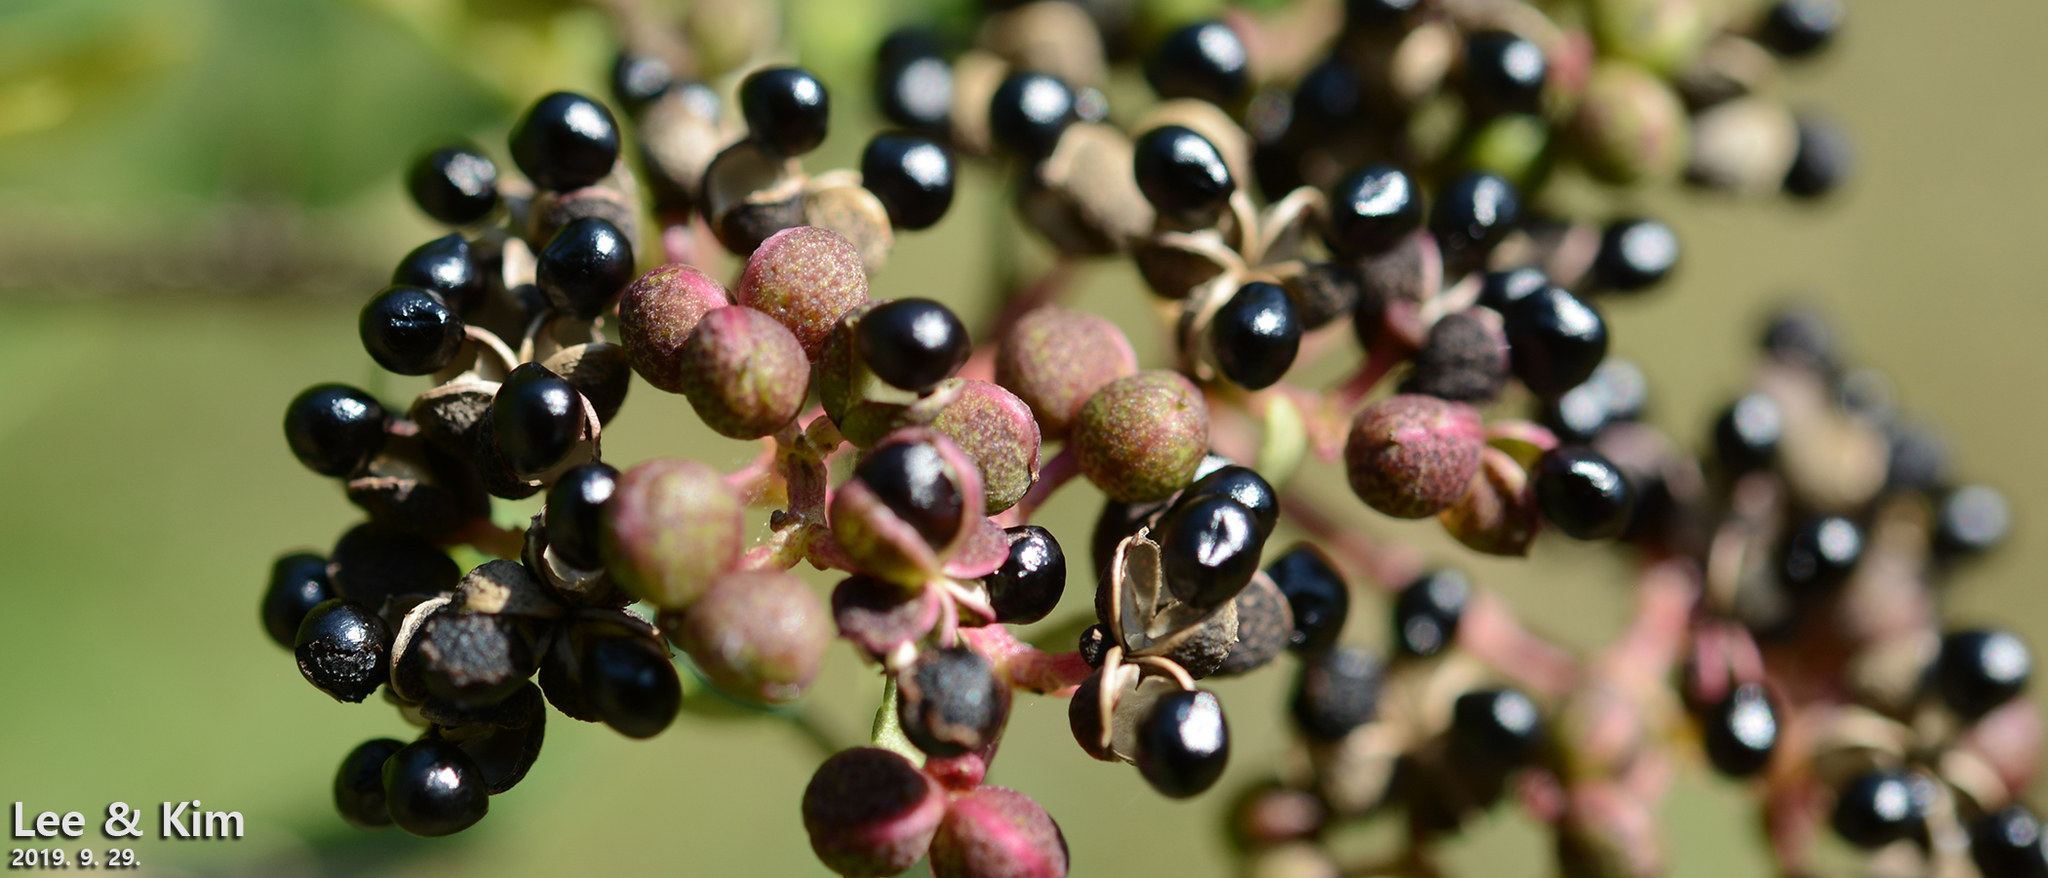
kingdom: Plantae
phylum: Tracheophyta
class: Magnoliopsida
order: Sapindales
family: Rutaceae
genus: Zanthoxylum
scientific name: Zanthoxylum schinifolium
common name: Sichuan-pepper
